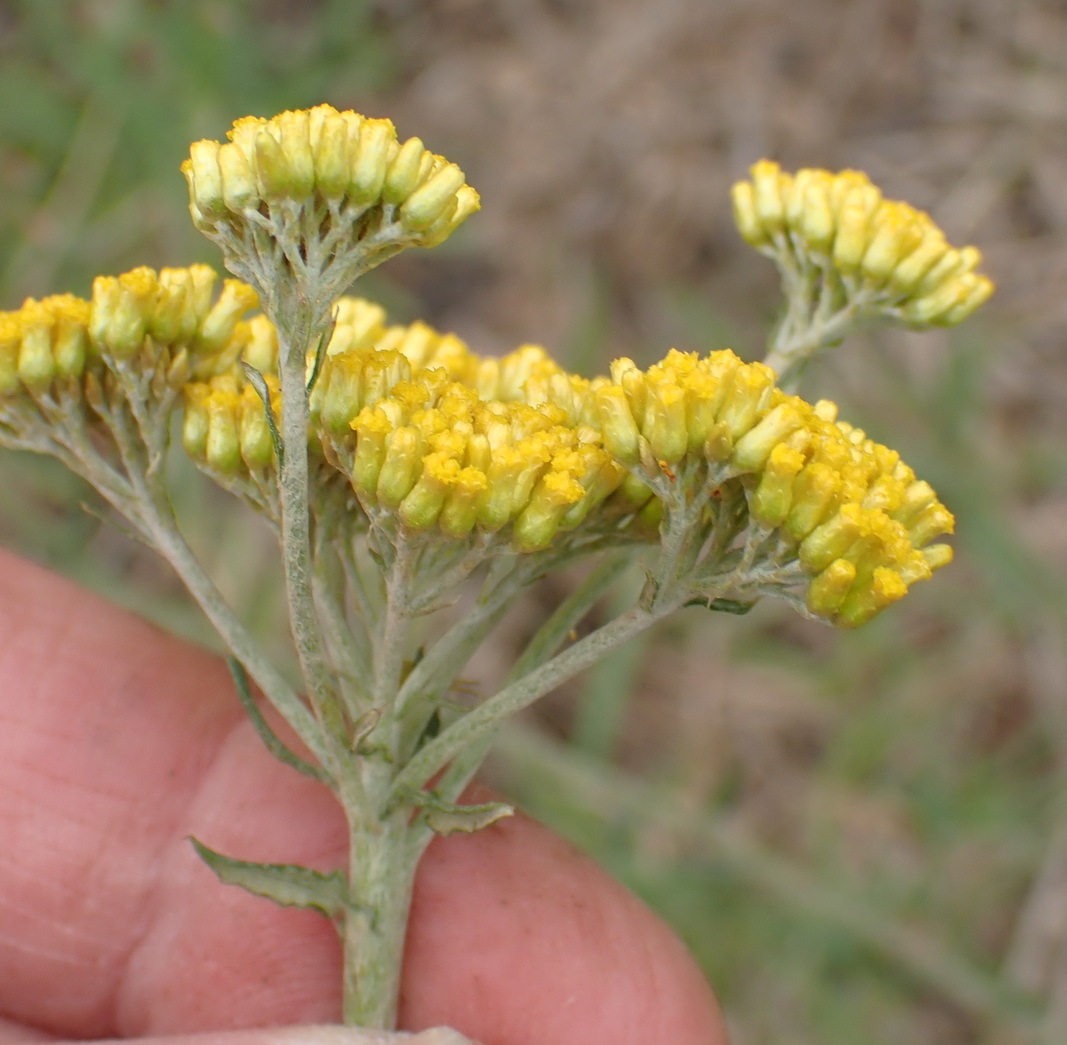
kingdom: Plantae
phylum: Tracheophyta
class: Magnoliopsida
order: Asterales
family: Asteraceae
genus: Helichrysum
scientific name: Helichrysum cymosum
